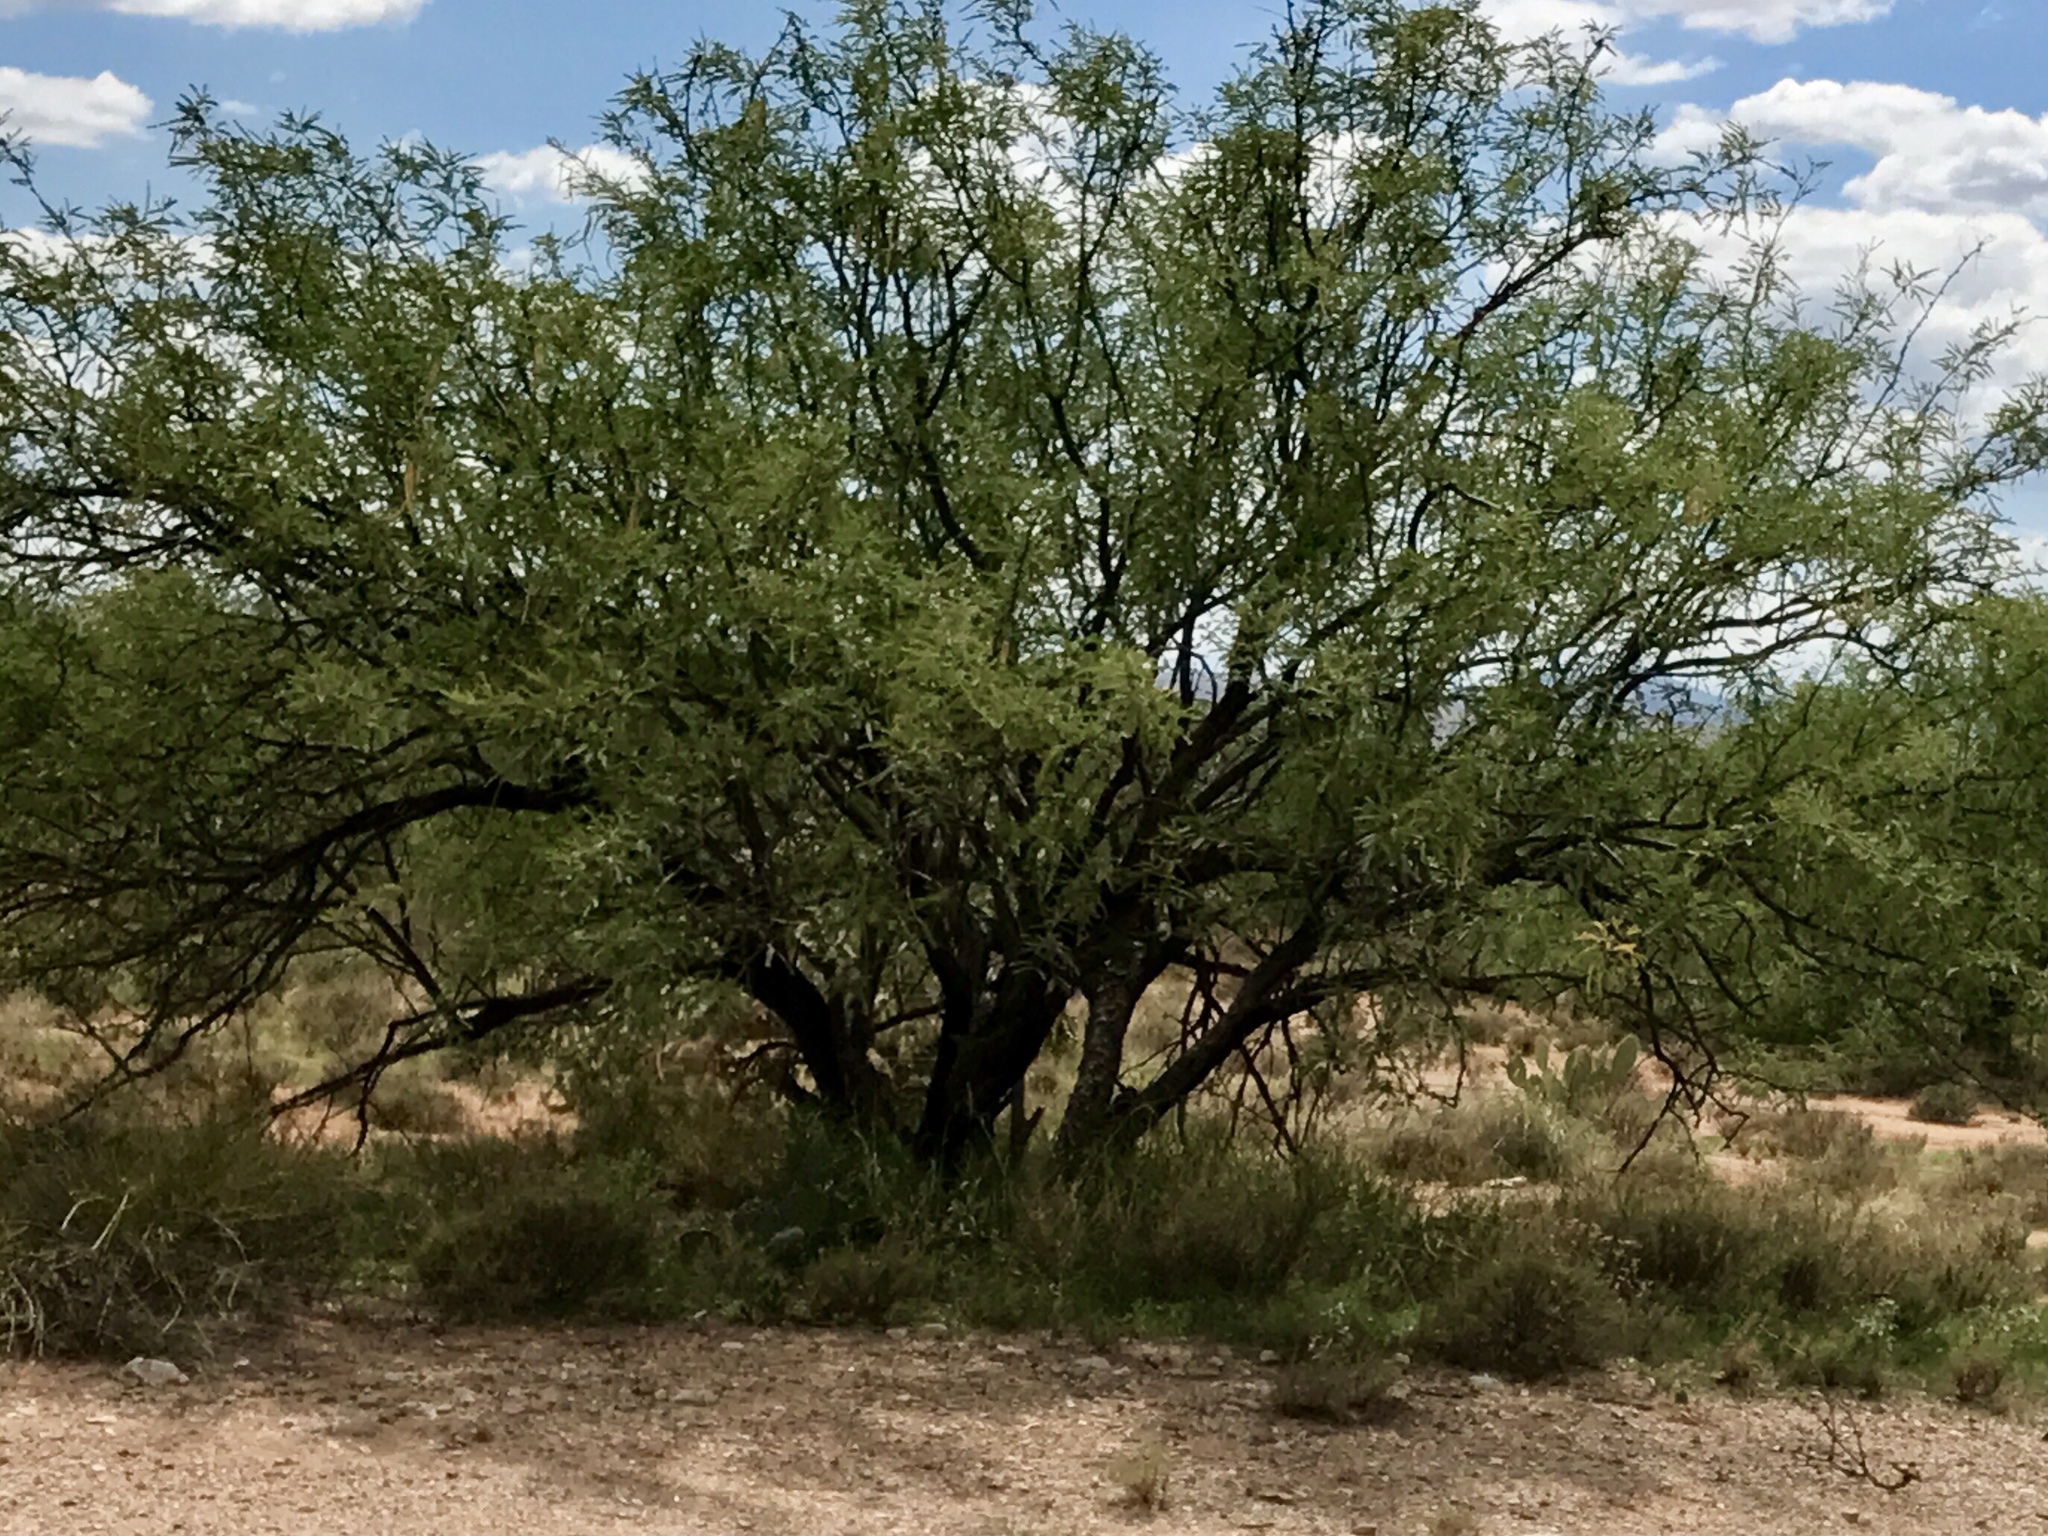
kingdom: Plantae
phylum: Tracheophyta
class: Magnoliopsida
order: Fabales
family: Fabaceae
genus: Prosopis
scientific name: Prosopis velutina
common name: Velvet mesquite
